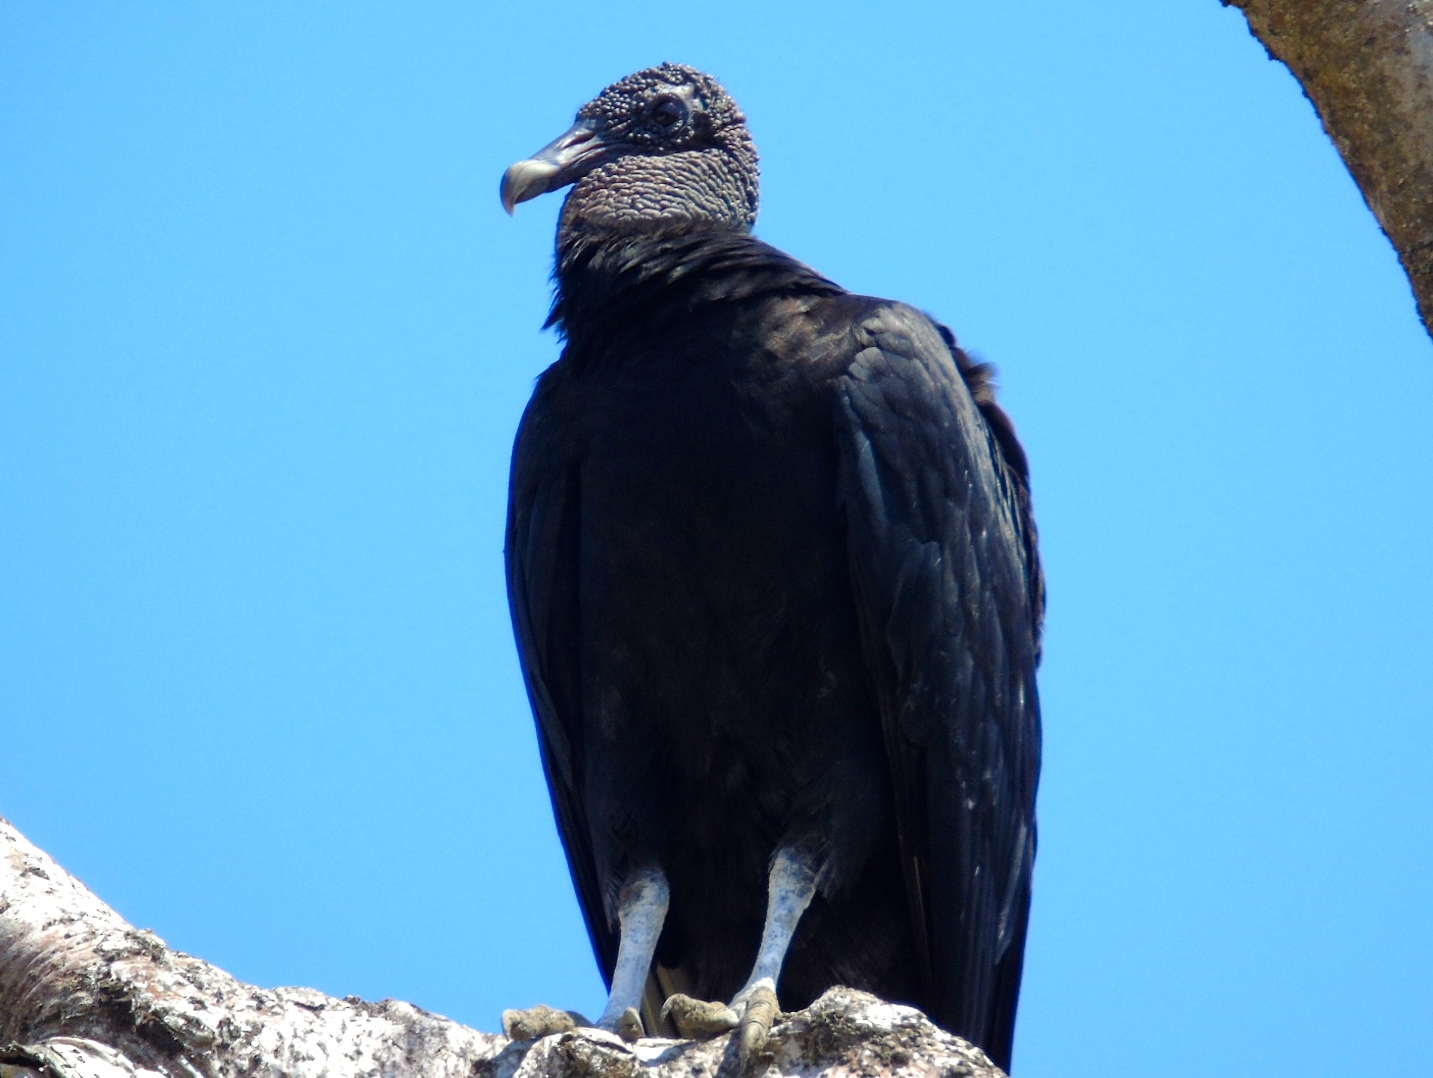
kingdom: Animalia
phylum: Chordata
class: Aves
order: Accipitriformes
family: Cathartidae
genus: Coragyps
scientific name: Coragyps atratus
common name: Black vulture
